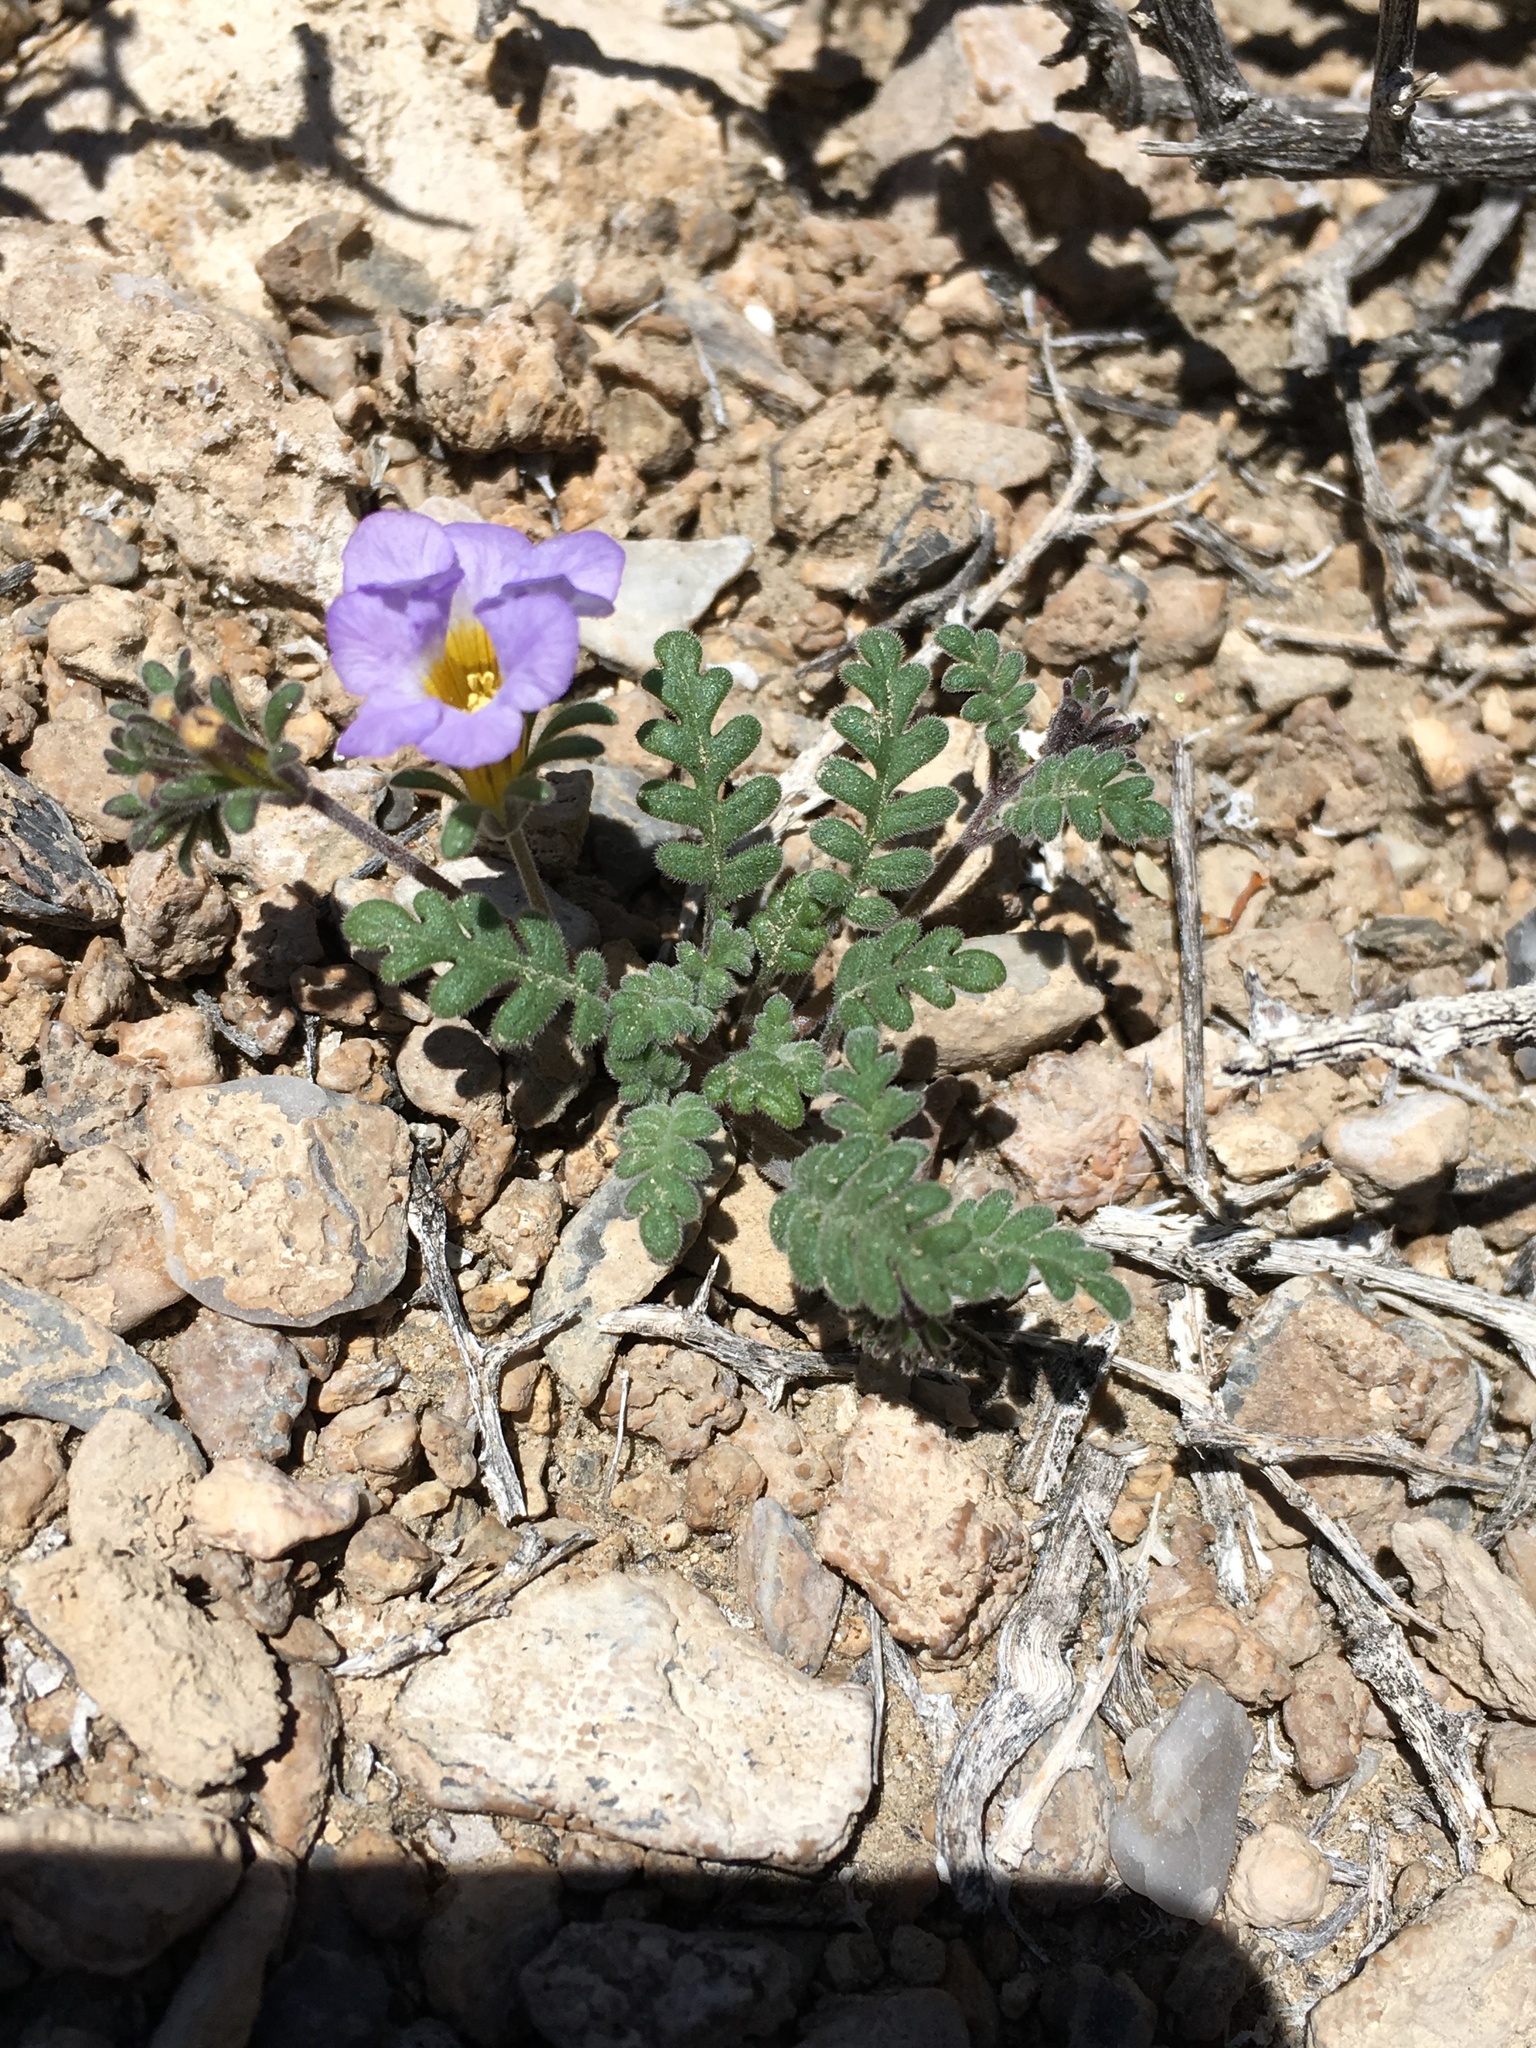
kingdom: Plantae
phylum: Tracheophyta
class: Magnoliopsida
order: Boraginales
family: Hydrophyllaceae
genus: Phacelia
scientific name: Phacelia fremontii
